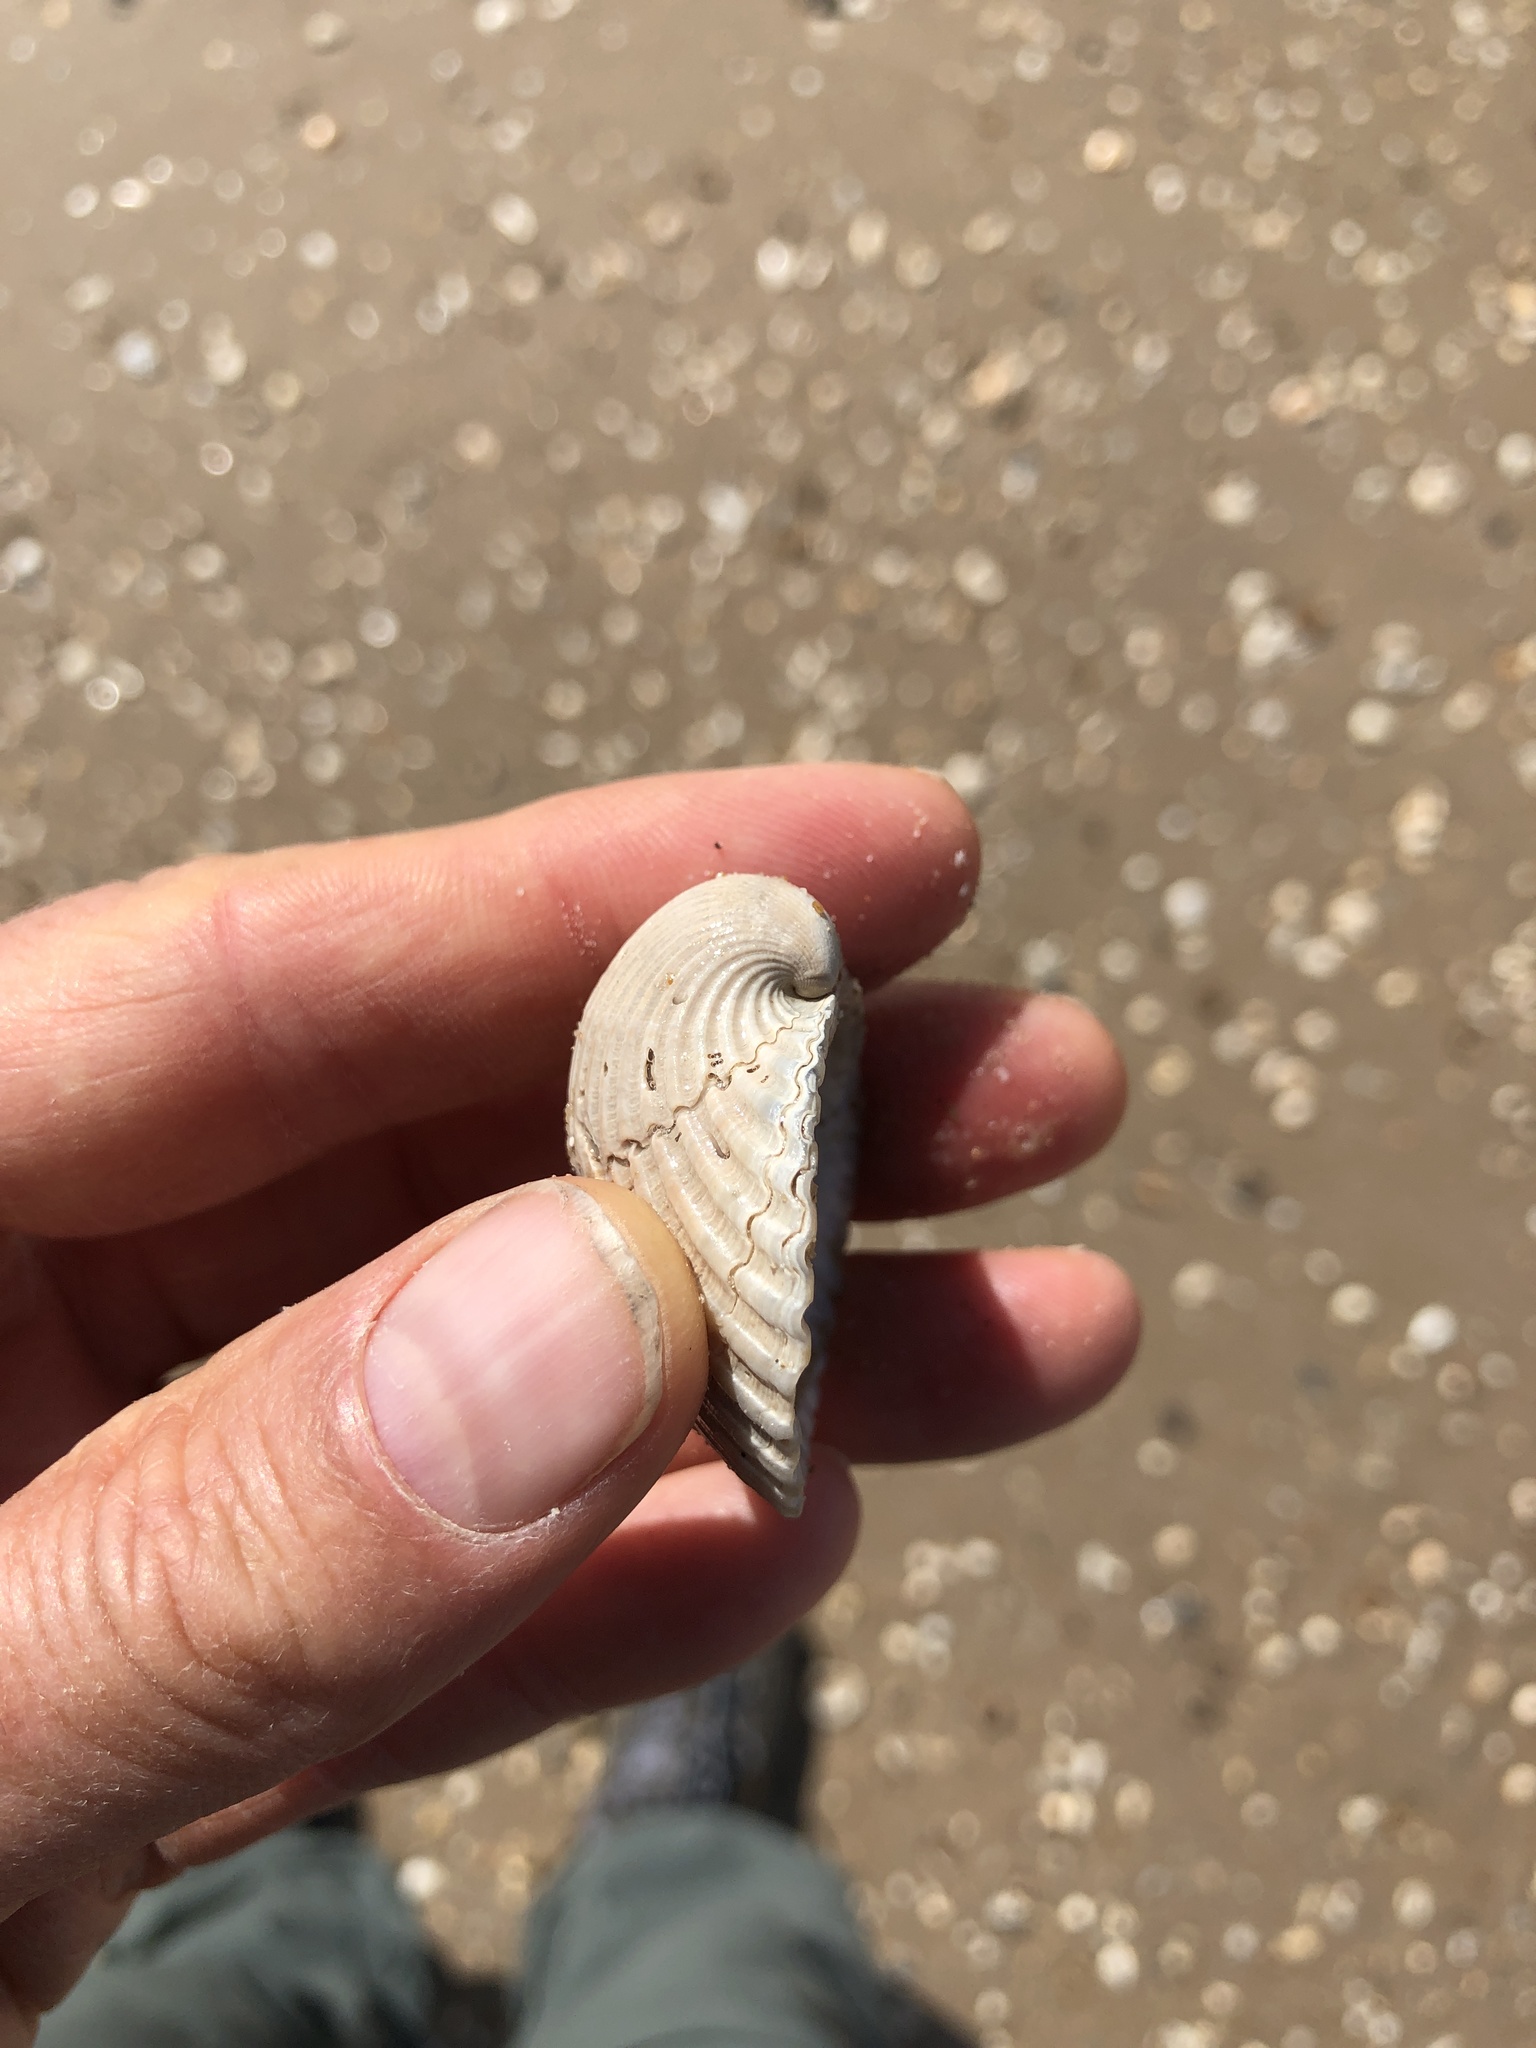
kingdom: Animalia
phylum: Mollusca
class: Bivalvia
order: Arcida
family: Arcidae
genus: Lunarca
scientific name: Lunarca ovalis
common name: Blood ark
